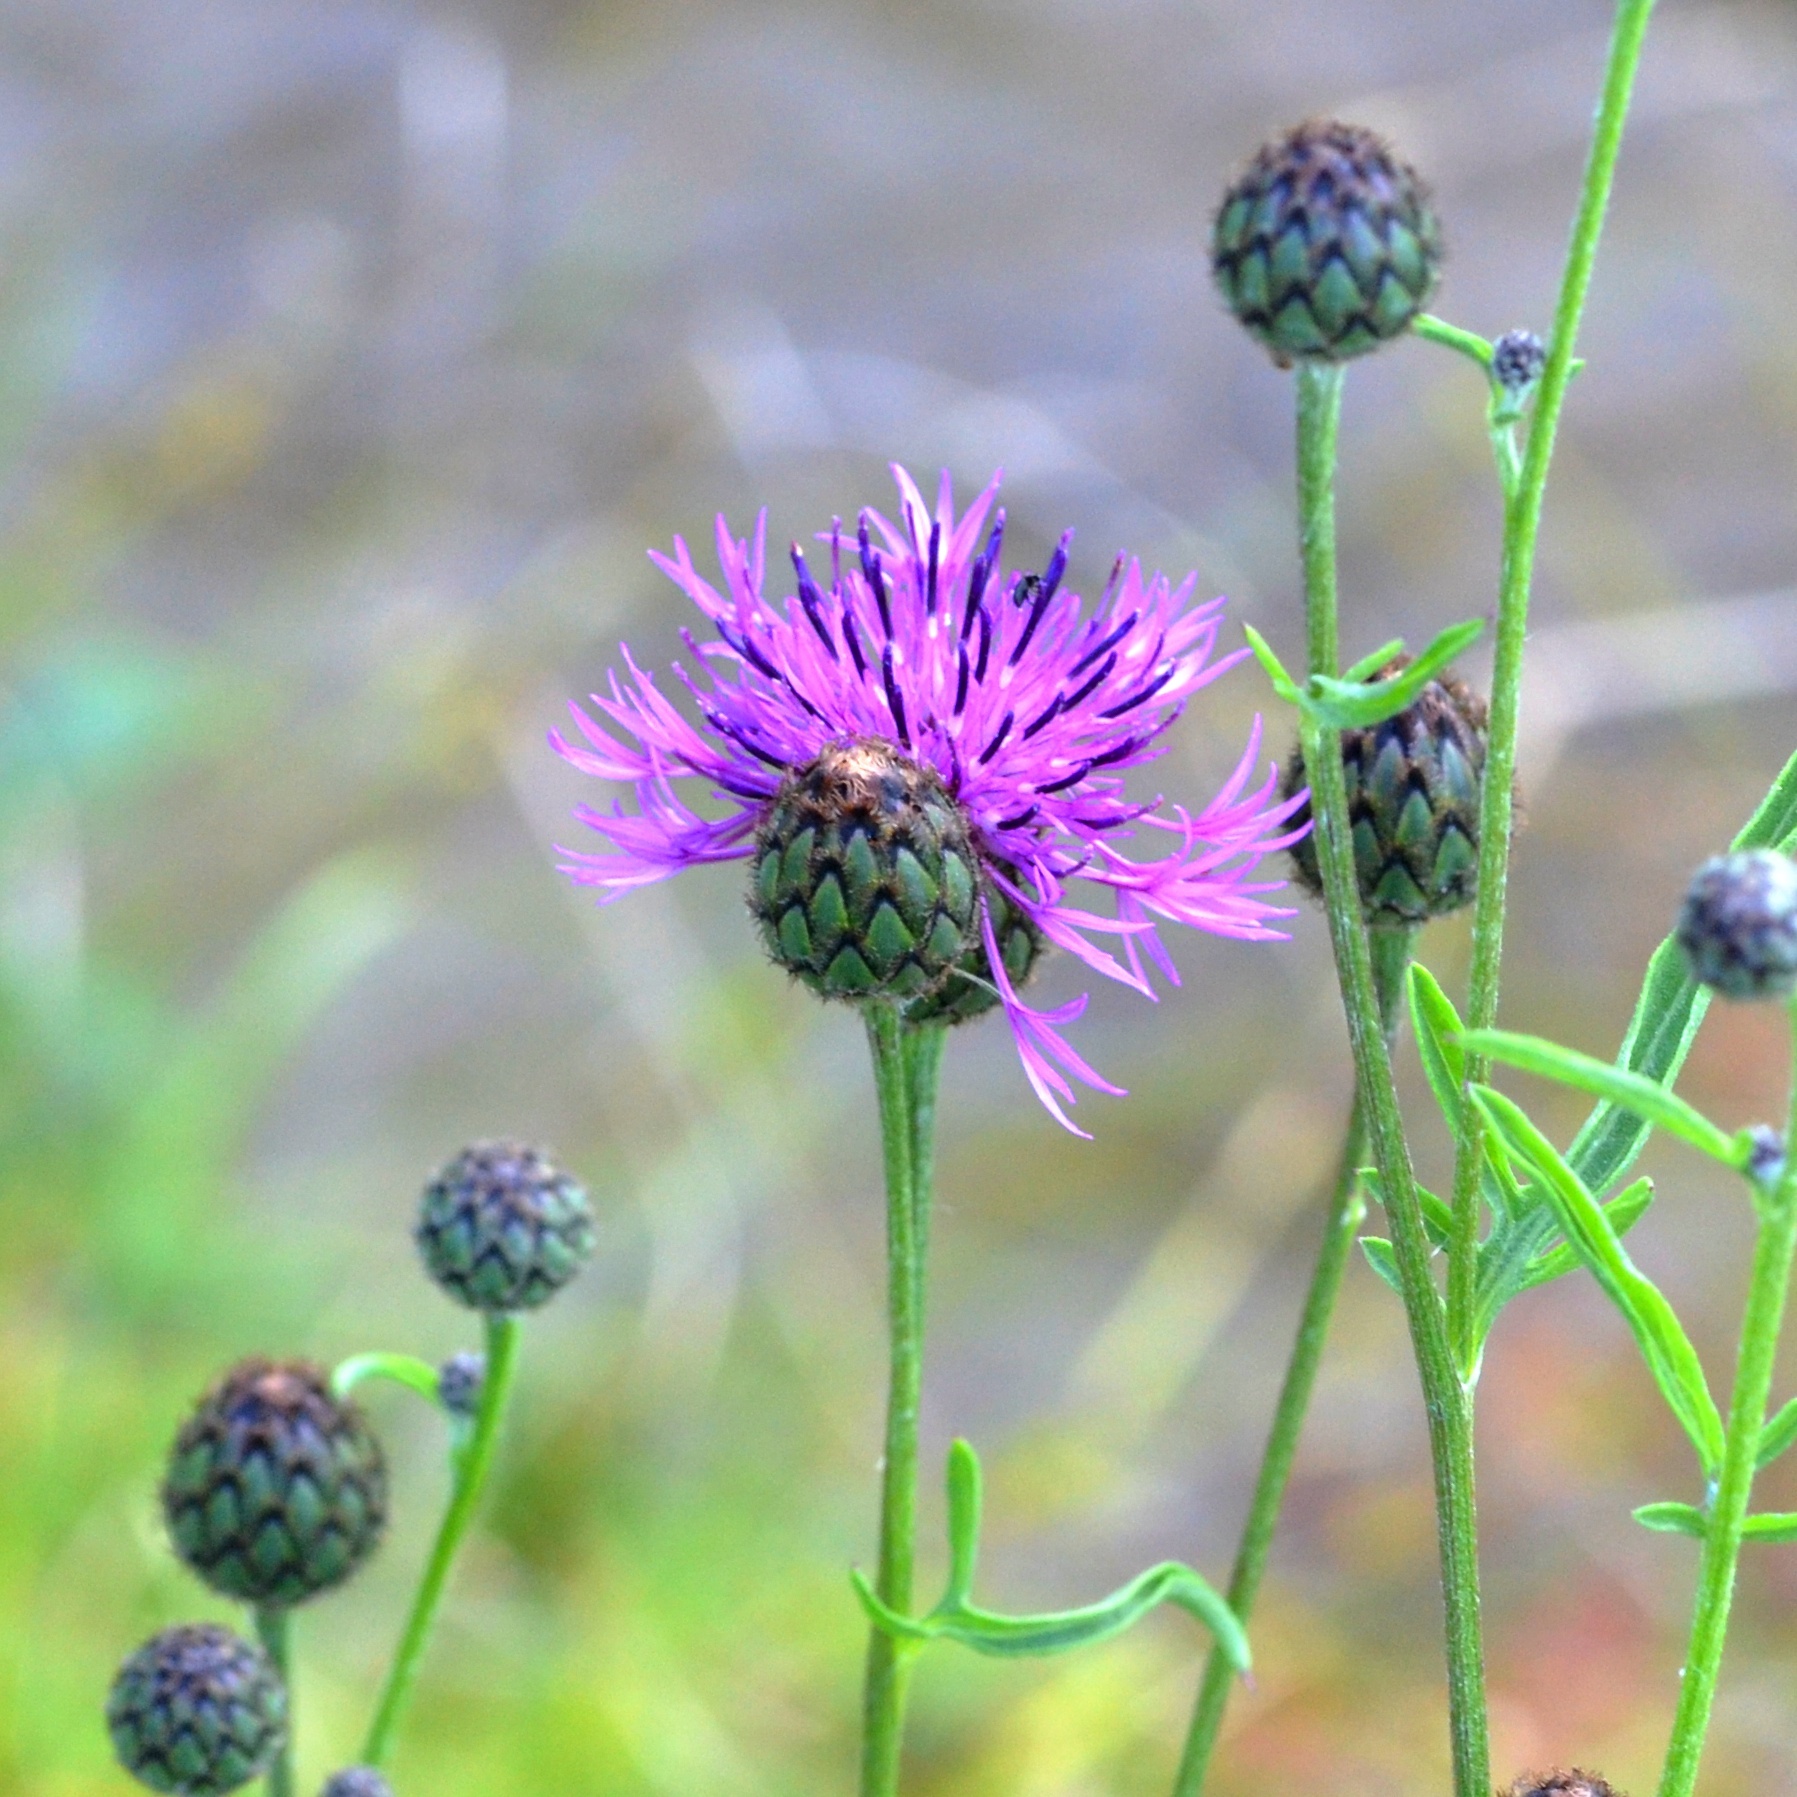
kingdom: Plantae
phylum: Tracheophyta
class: Magnoliopsida
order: Asterales
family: Asteraceae
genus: Centaurea
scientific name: Centaurea scabiosa
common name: Greater knapweed
